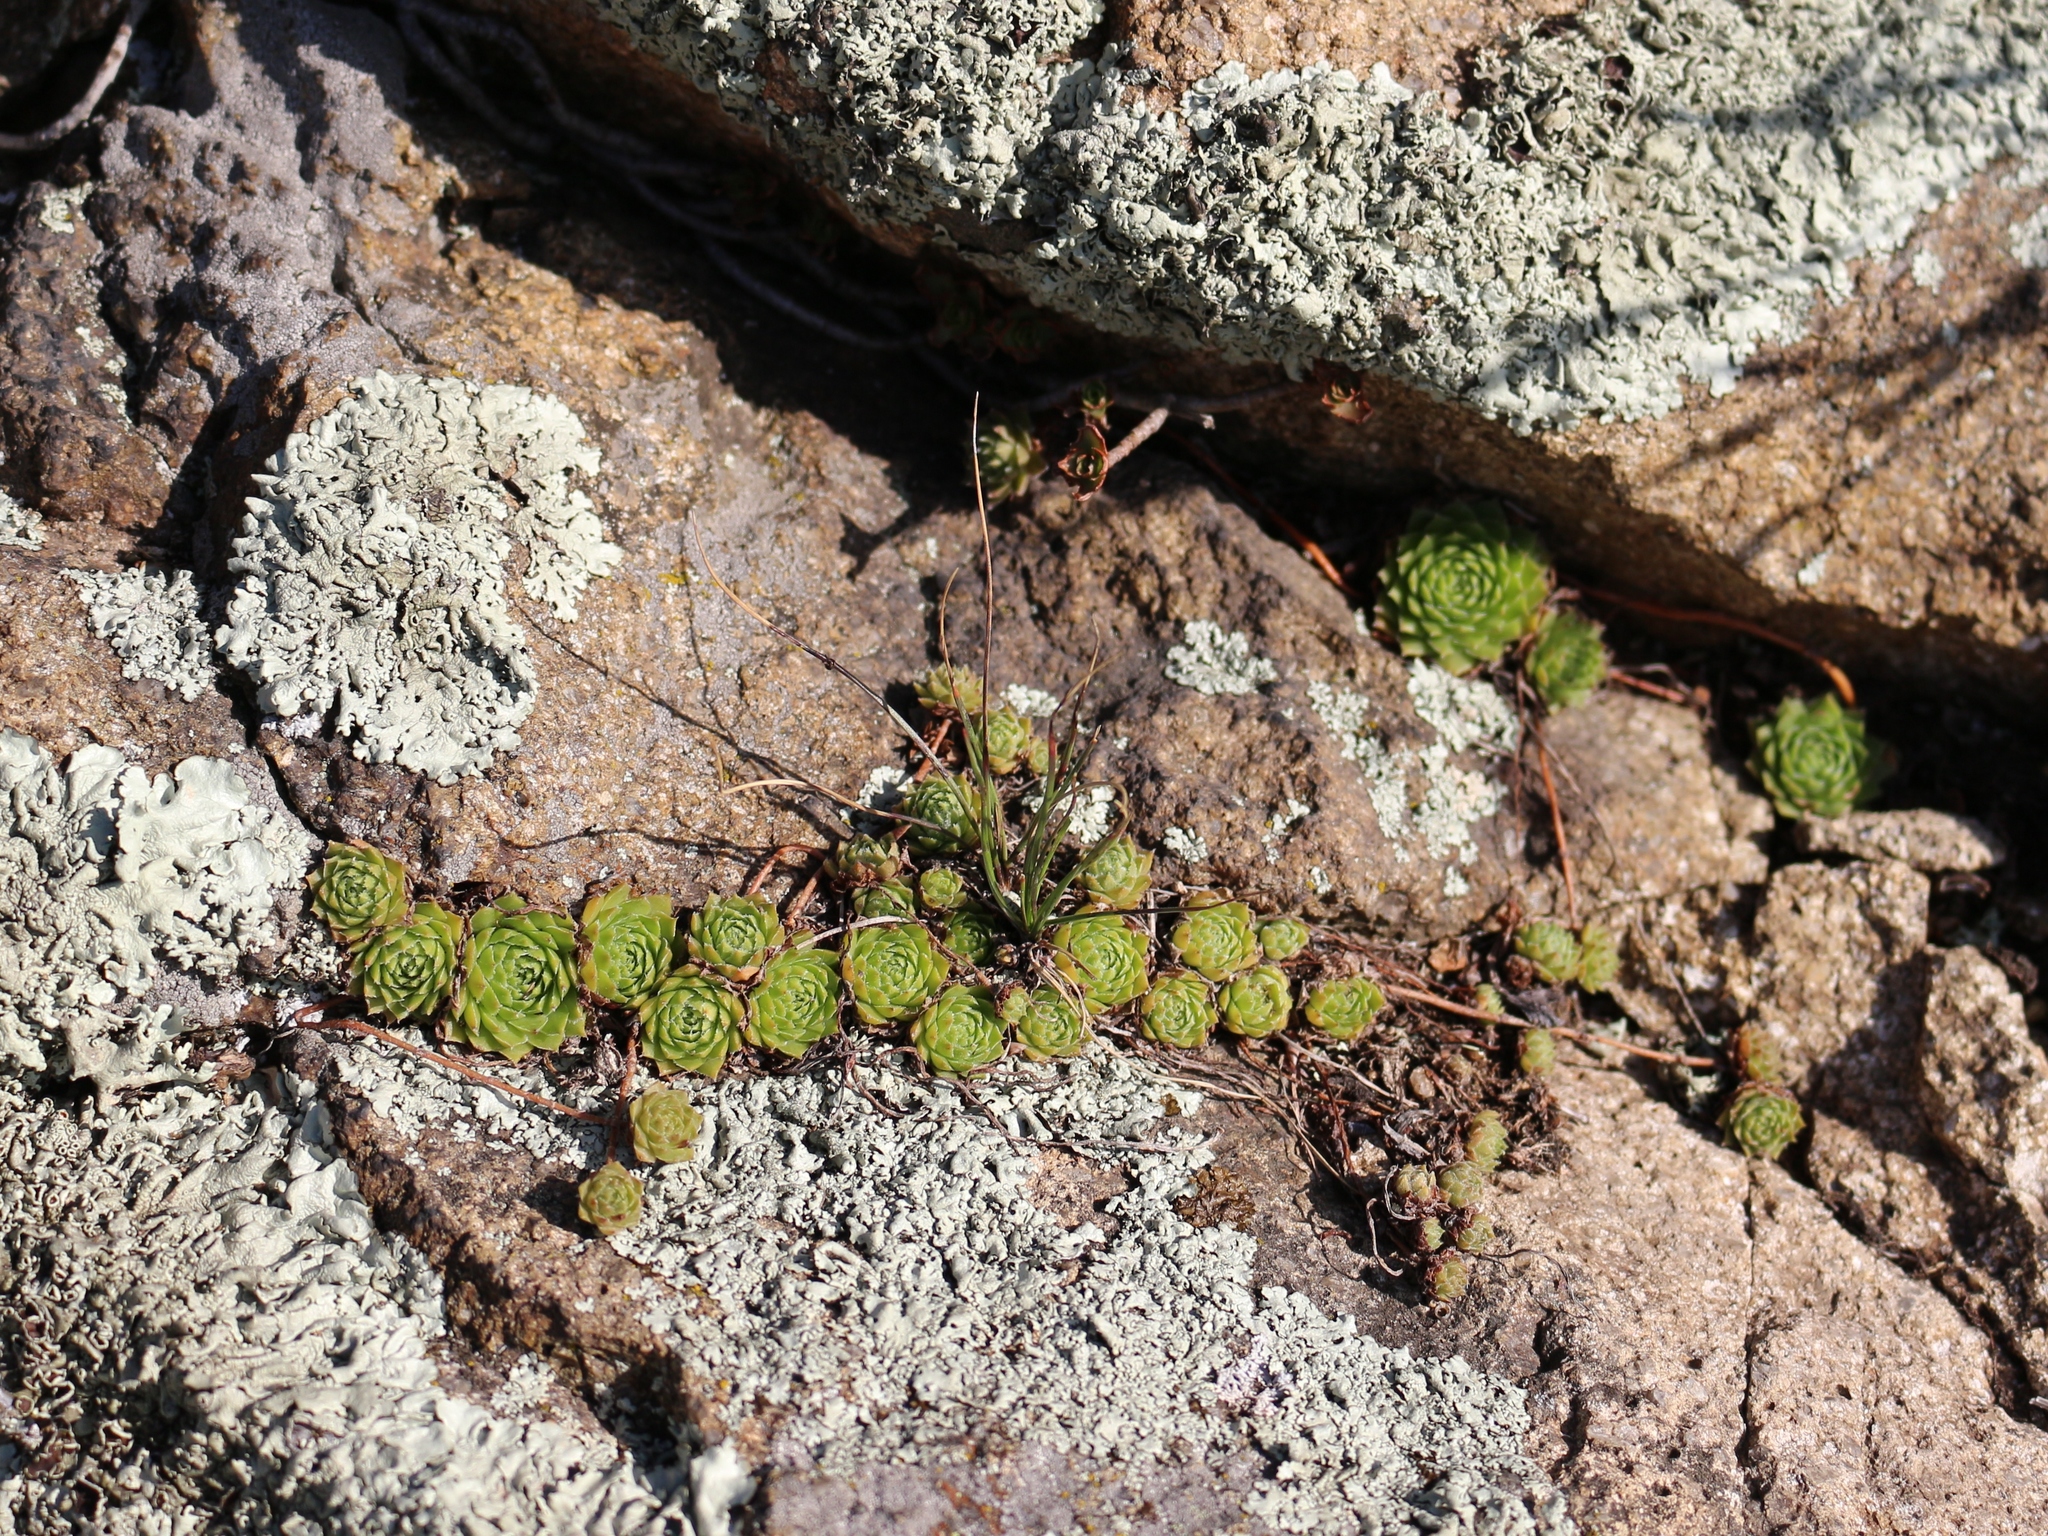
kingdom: Plantae
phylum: Tracheophyta
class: Magnoliopsida
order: Saxifragales
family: Crassulaceae
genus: Sempervivum
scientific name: Sempervivum pumilum
